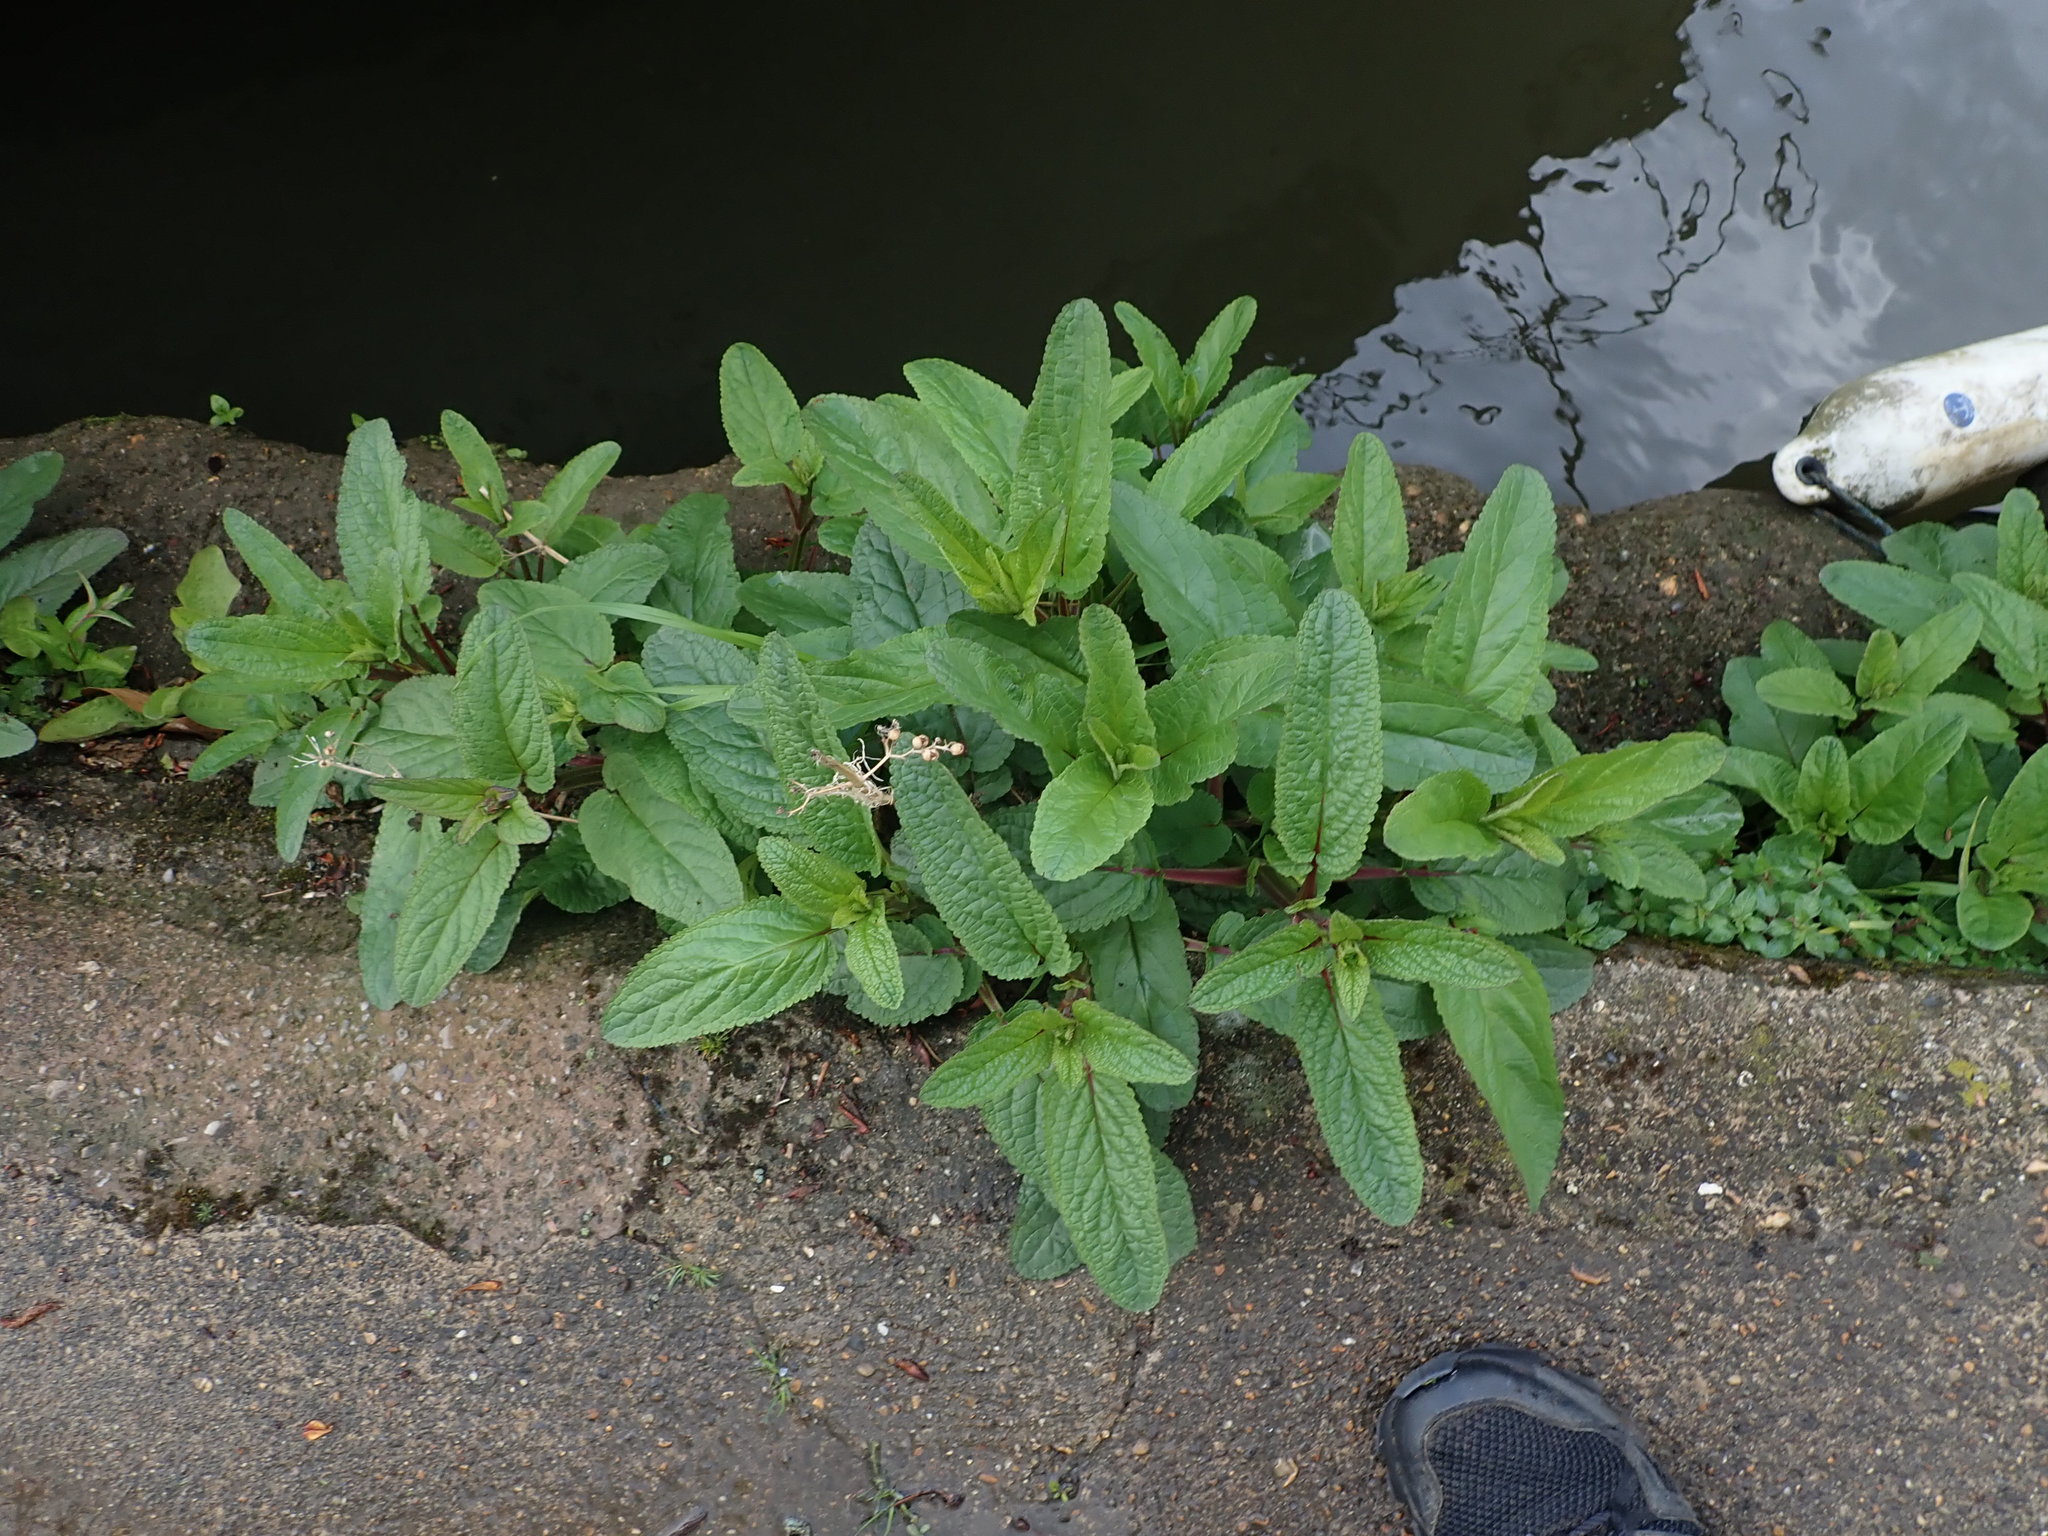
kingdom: Plantae
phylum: Tracheophyta
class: Magnoliopsida
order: Lamiales
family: Scrophulariaceae
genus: Scrophularia
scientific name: Scrophularia auriculata
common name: Water betony
